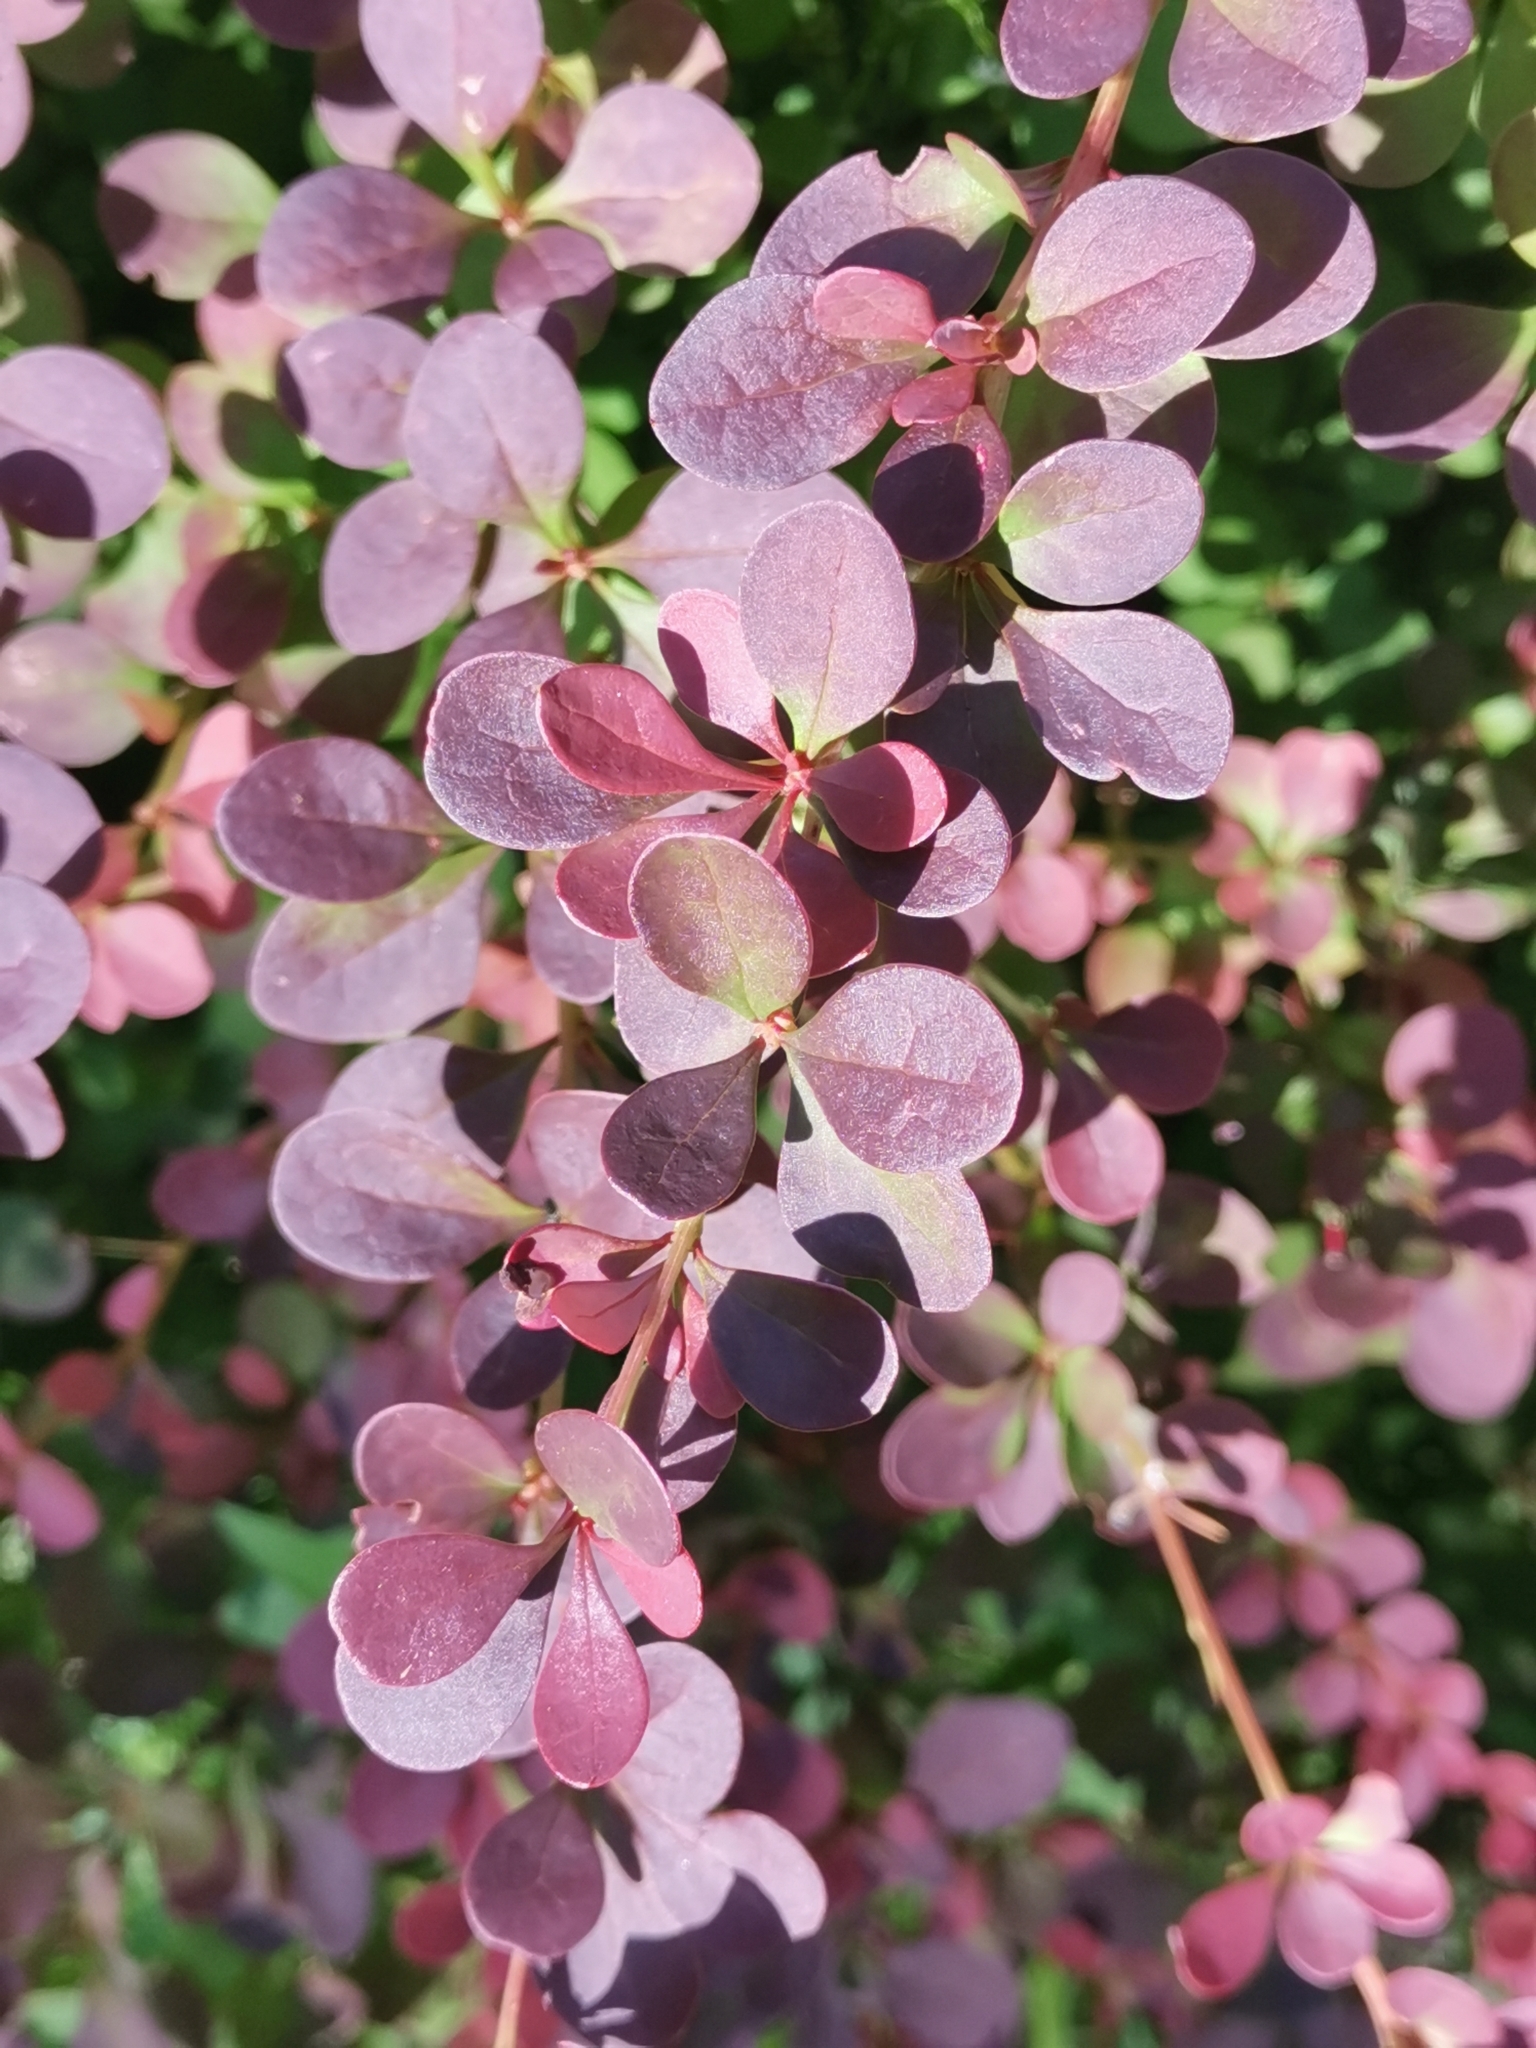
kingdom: Plantae
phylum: Tracheophyta
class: Magnoliopsida
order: Ranunculales
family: Berberidaceae
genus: Berberis
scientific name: Berberis thunbergii
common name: Japanese barberry
